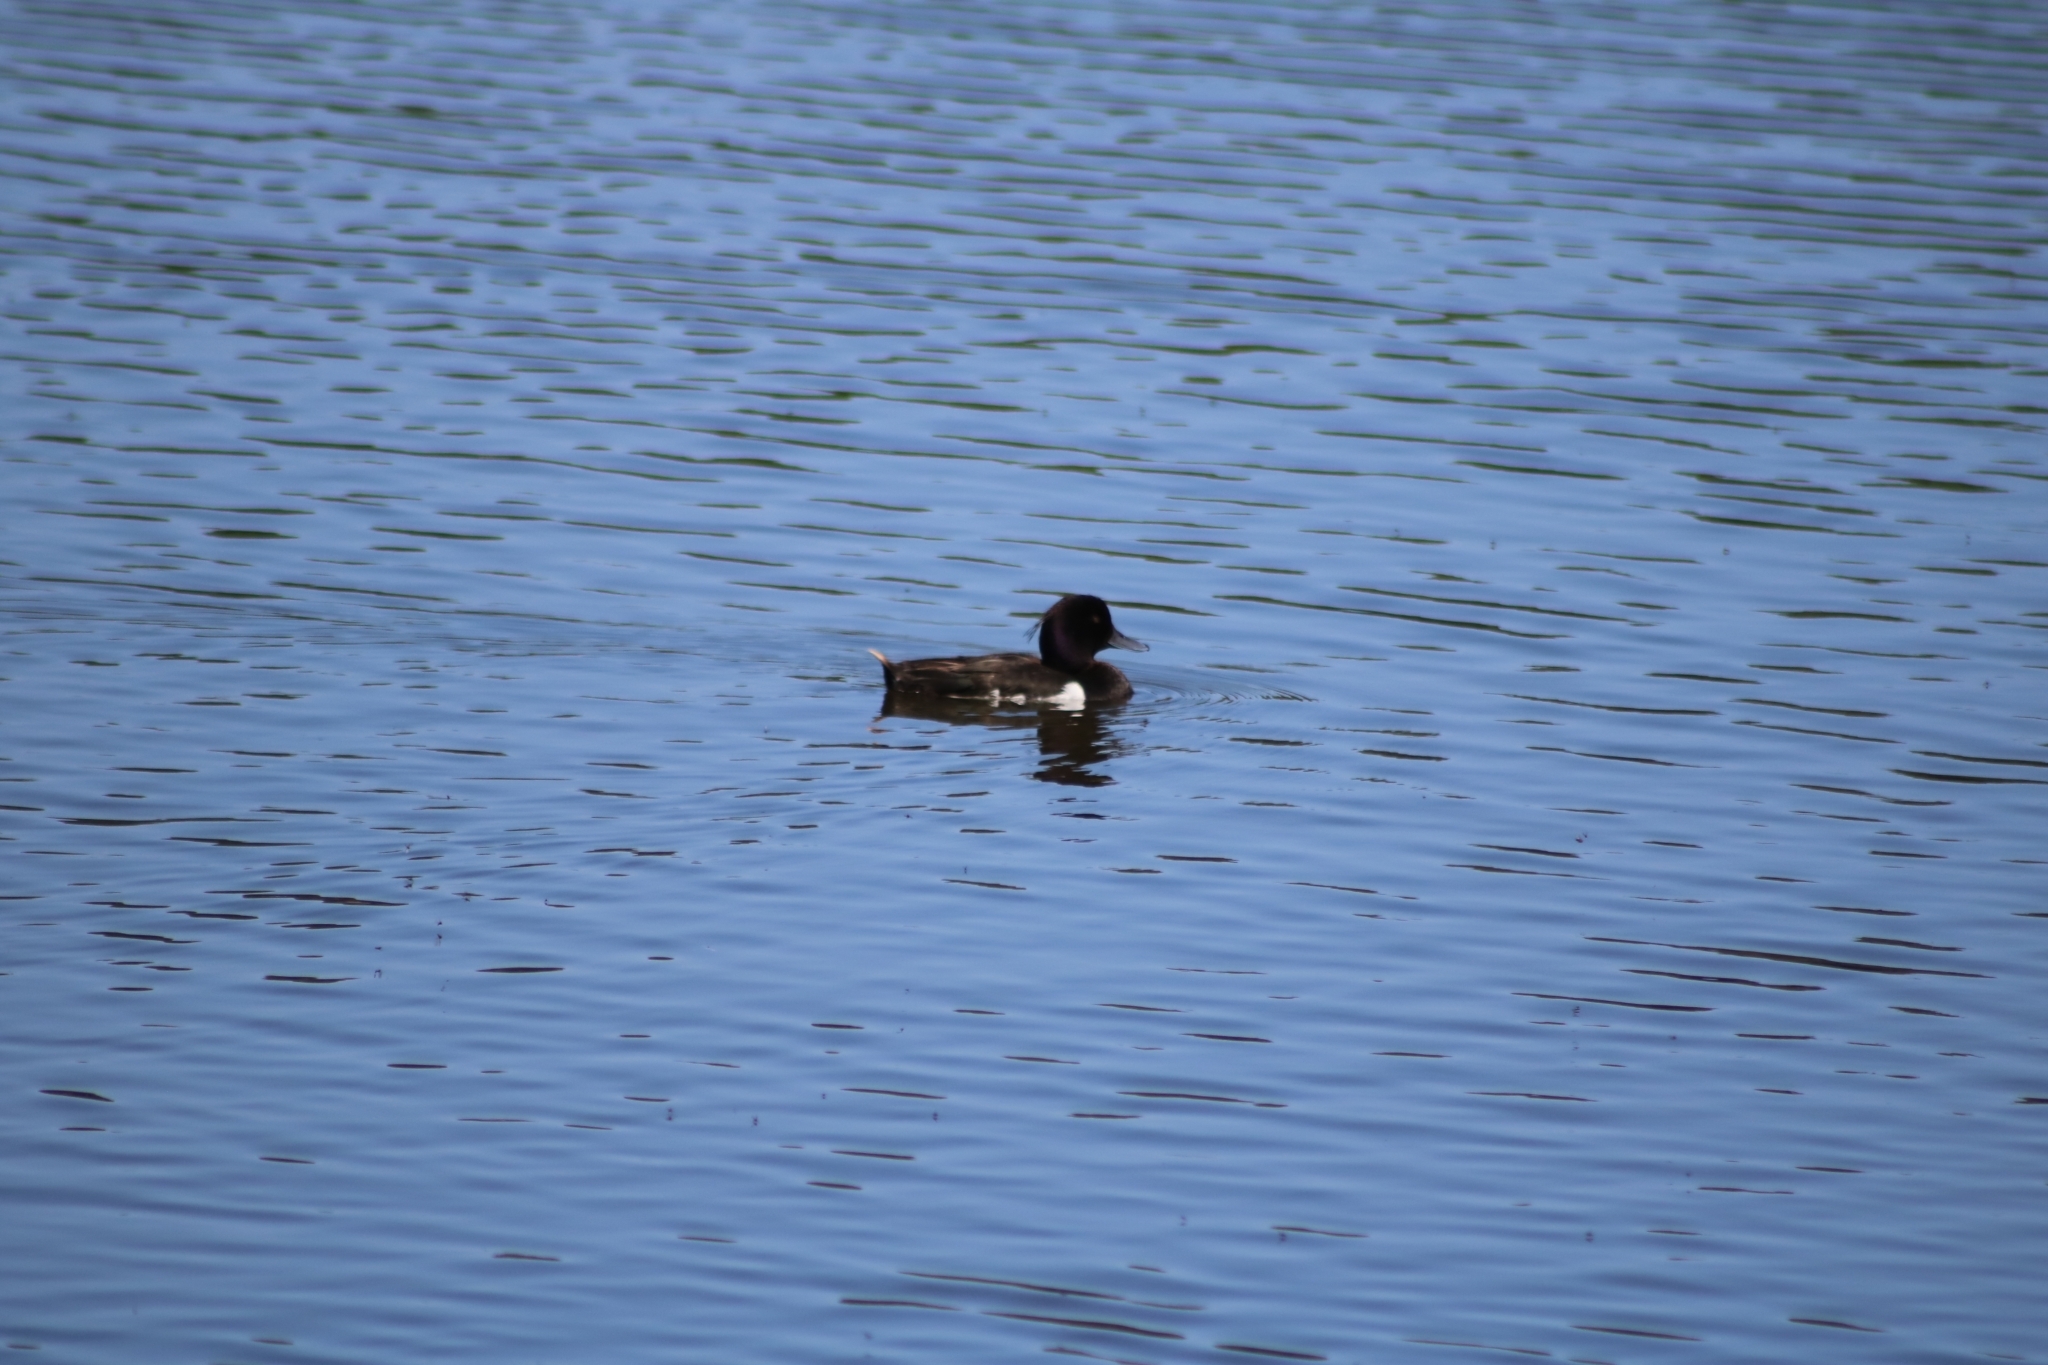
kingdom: Animalia
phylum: Chordata
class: Aves
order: Anseriformes
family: Anatidae
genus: Aythya
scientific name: Aythya fuligula
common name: Tufted duck
